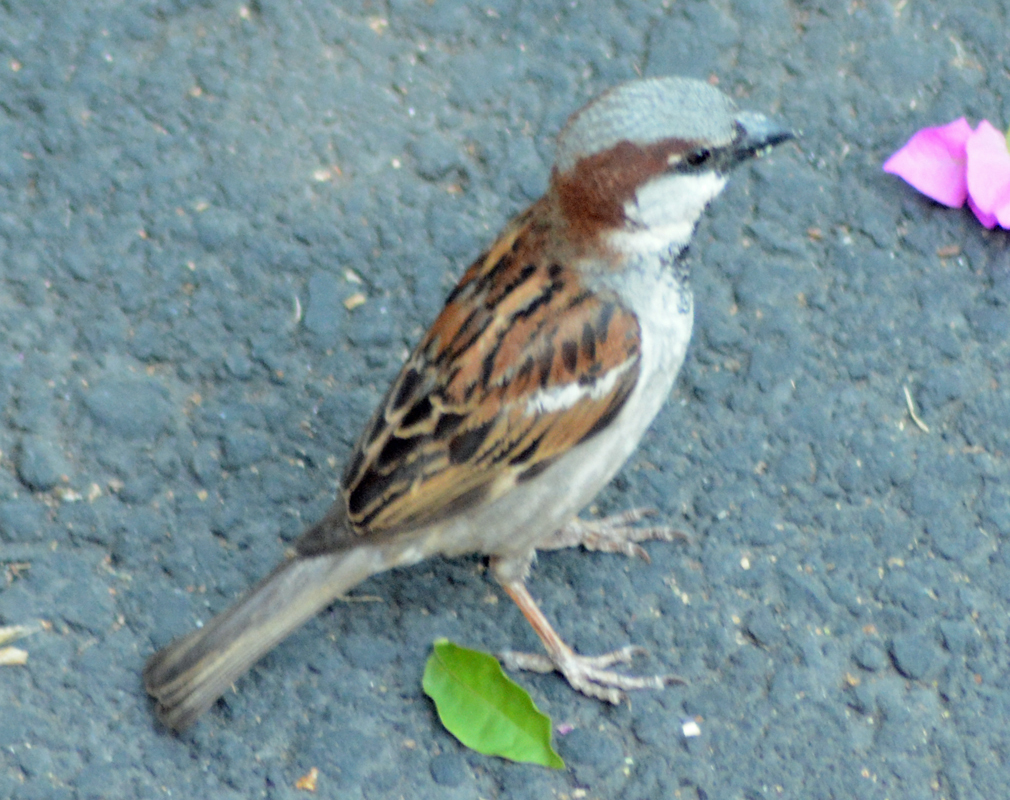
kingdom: Animalia
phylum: Chordata
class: Aves
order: Passeriformes
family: Passeridae
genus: Passer
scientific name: Passer domesticus
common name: House sparrow
